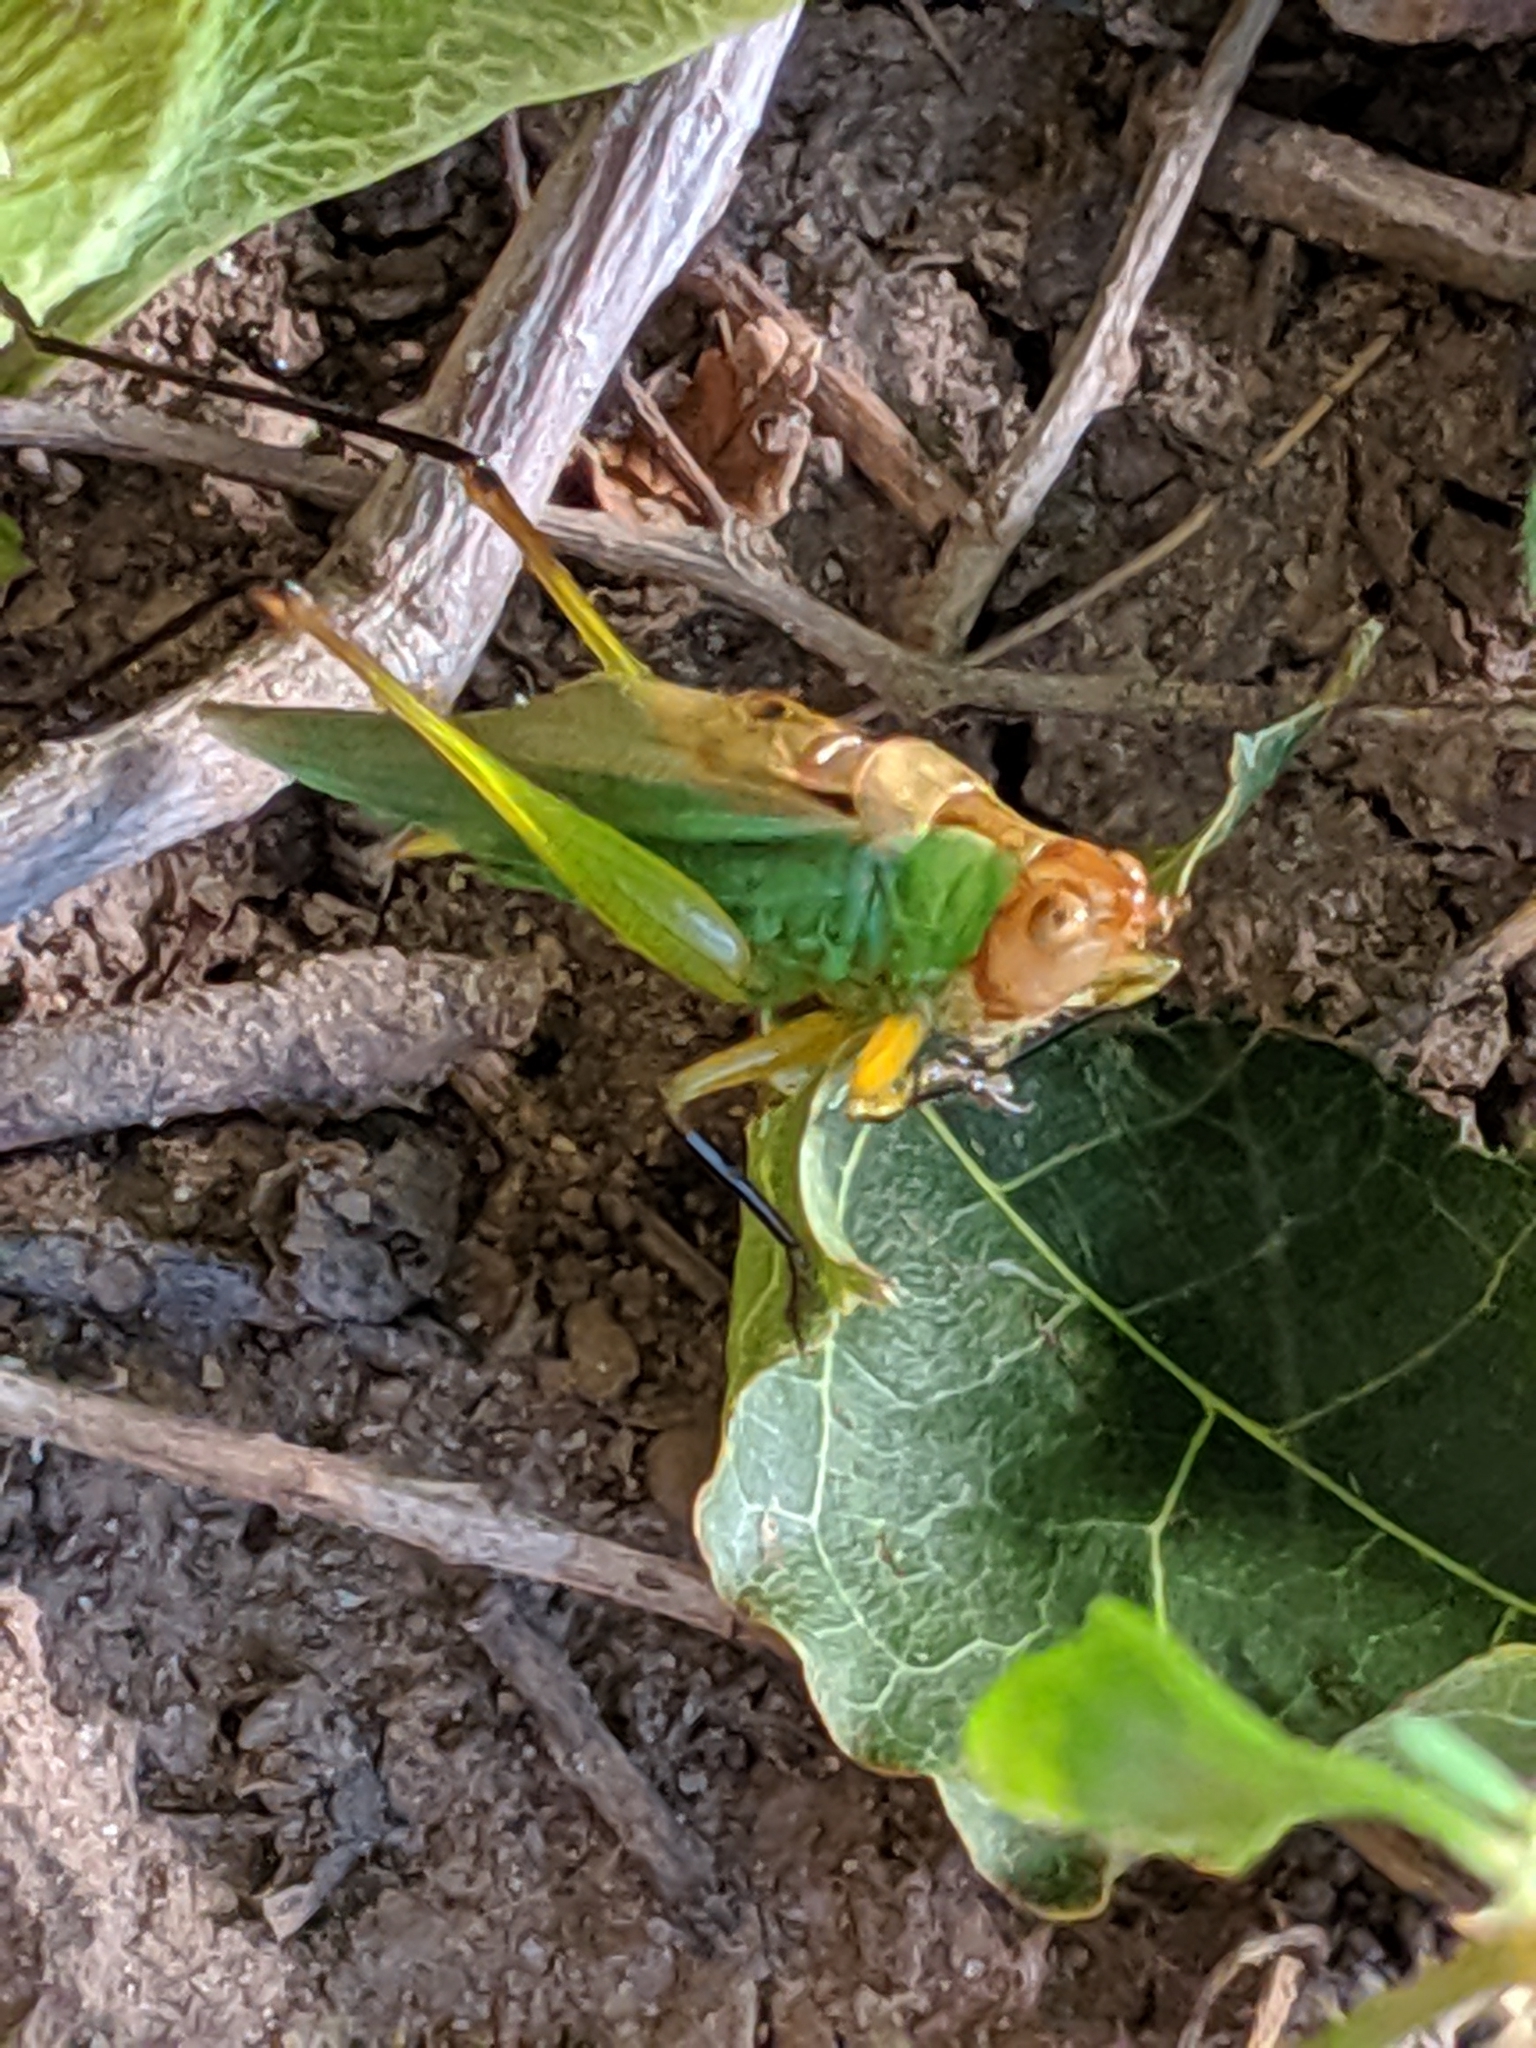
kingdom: Animalia
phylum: Arthropoda
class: Insecta
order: Orthoptera
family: Tettigoniidae
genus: Orchelimum
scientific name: Orchelimum nigripes
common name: Black-legged meadow katydid
